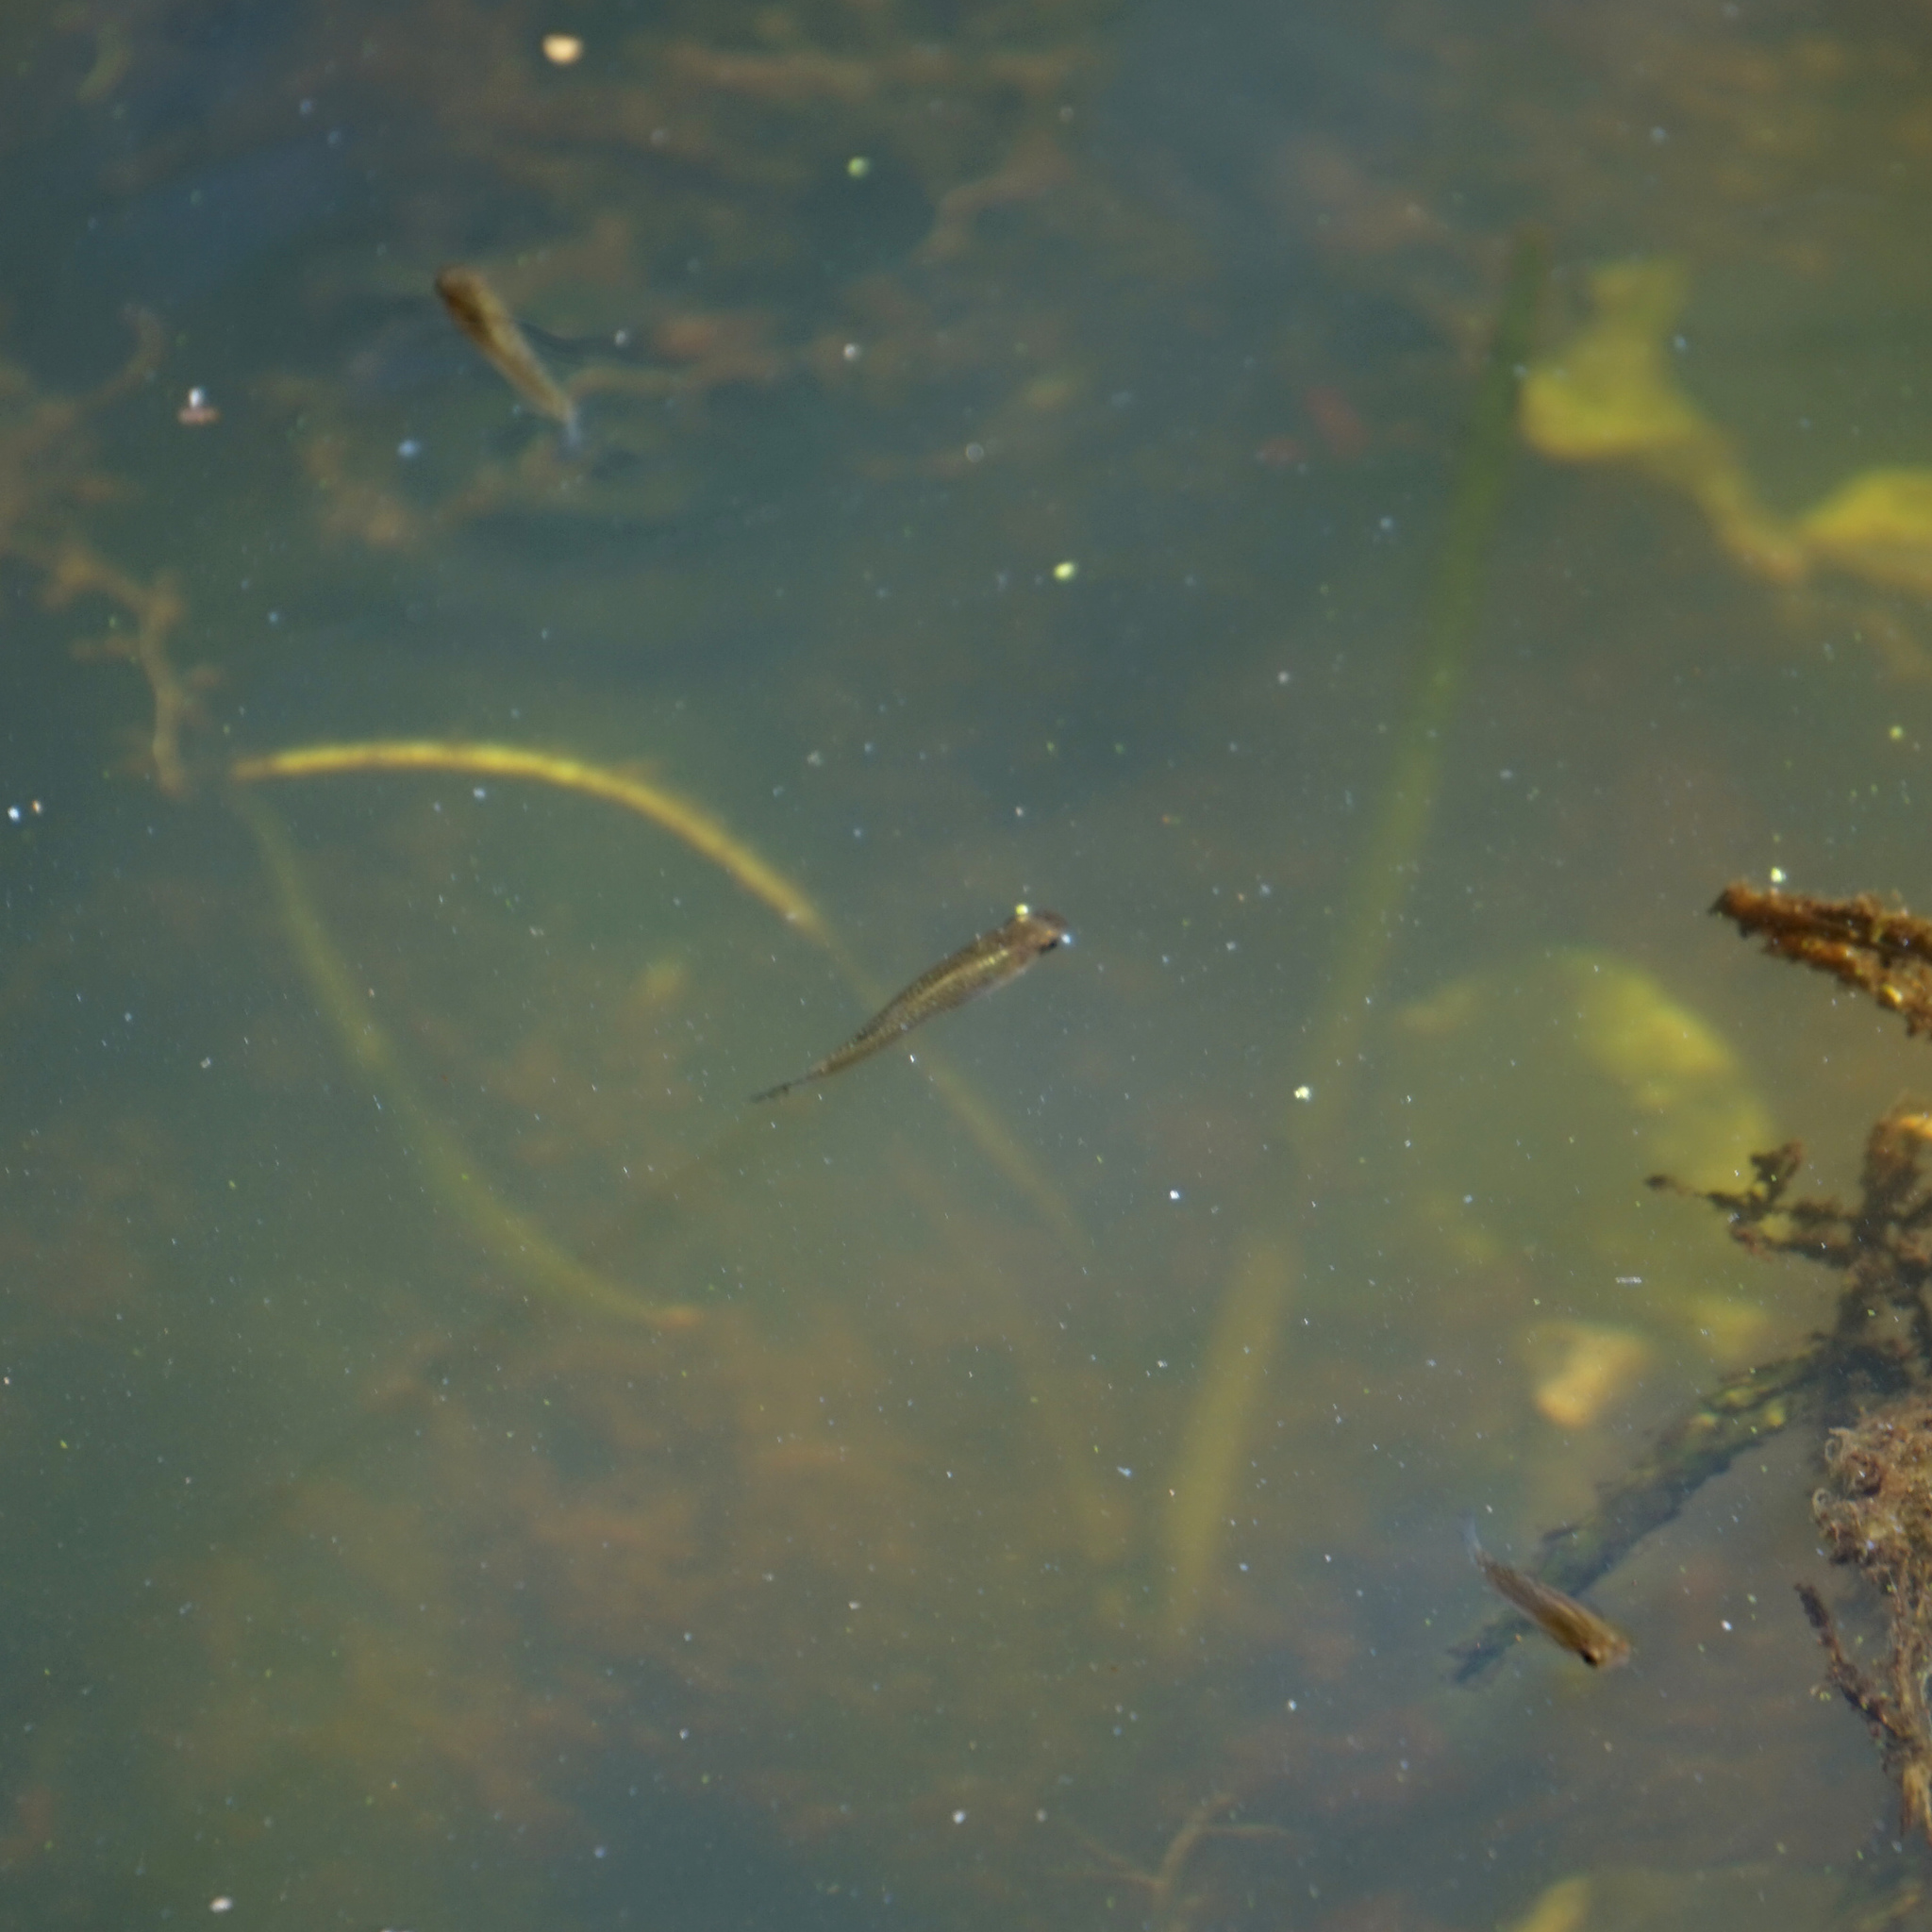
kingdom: Animalia
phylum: Chordata
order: Cyprinodontiformes
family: Poeciliidae
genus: Gambusia
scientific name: Gambusia holbrooki
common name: Eastern mosquitofish
